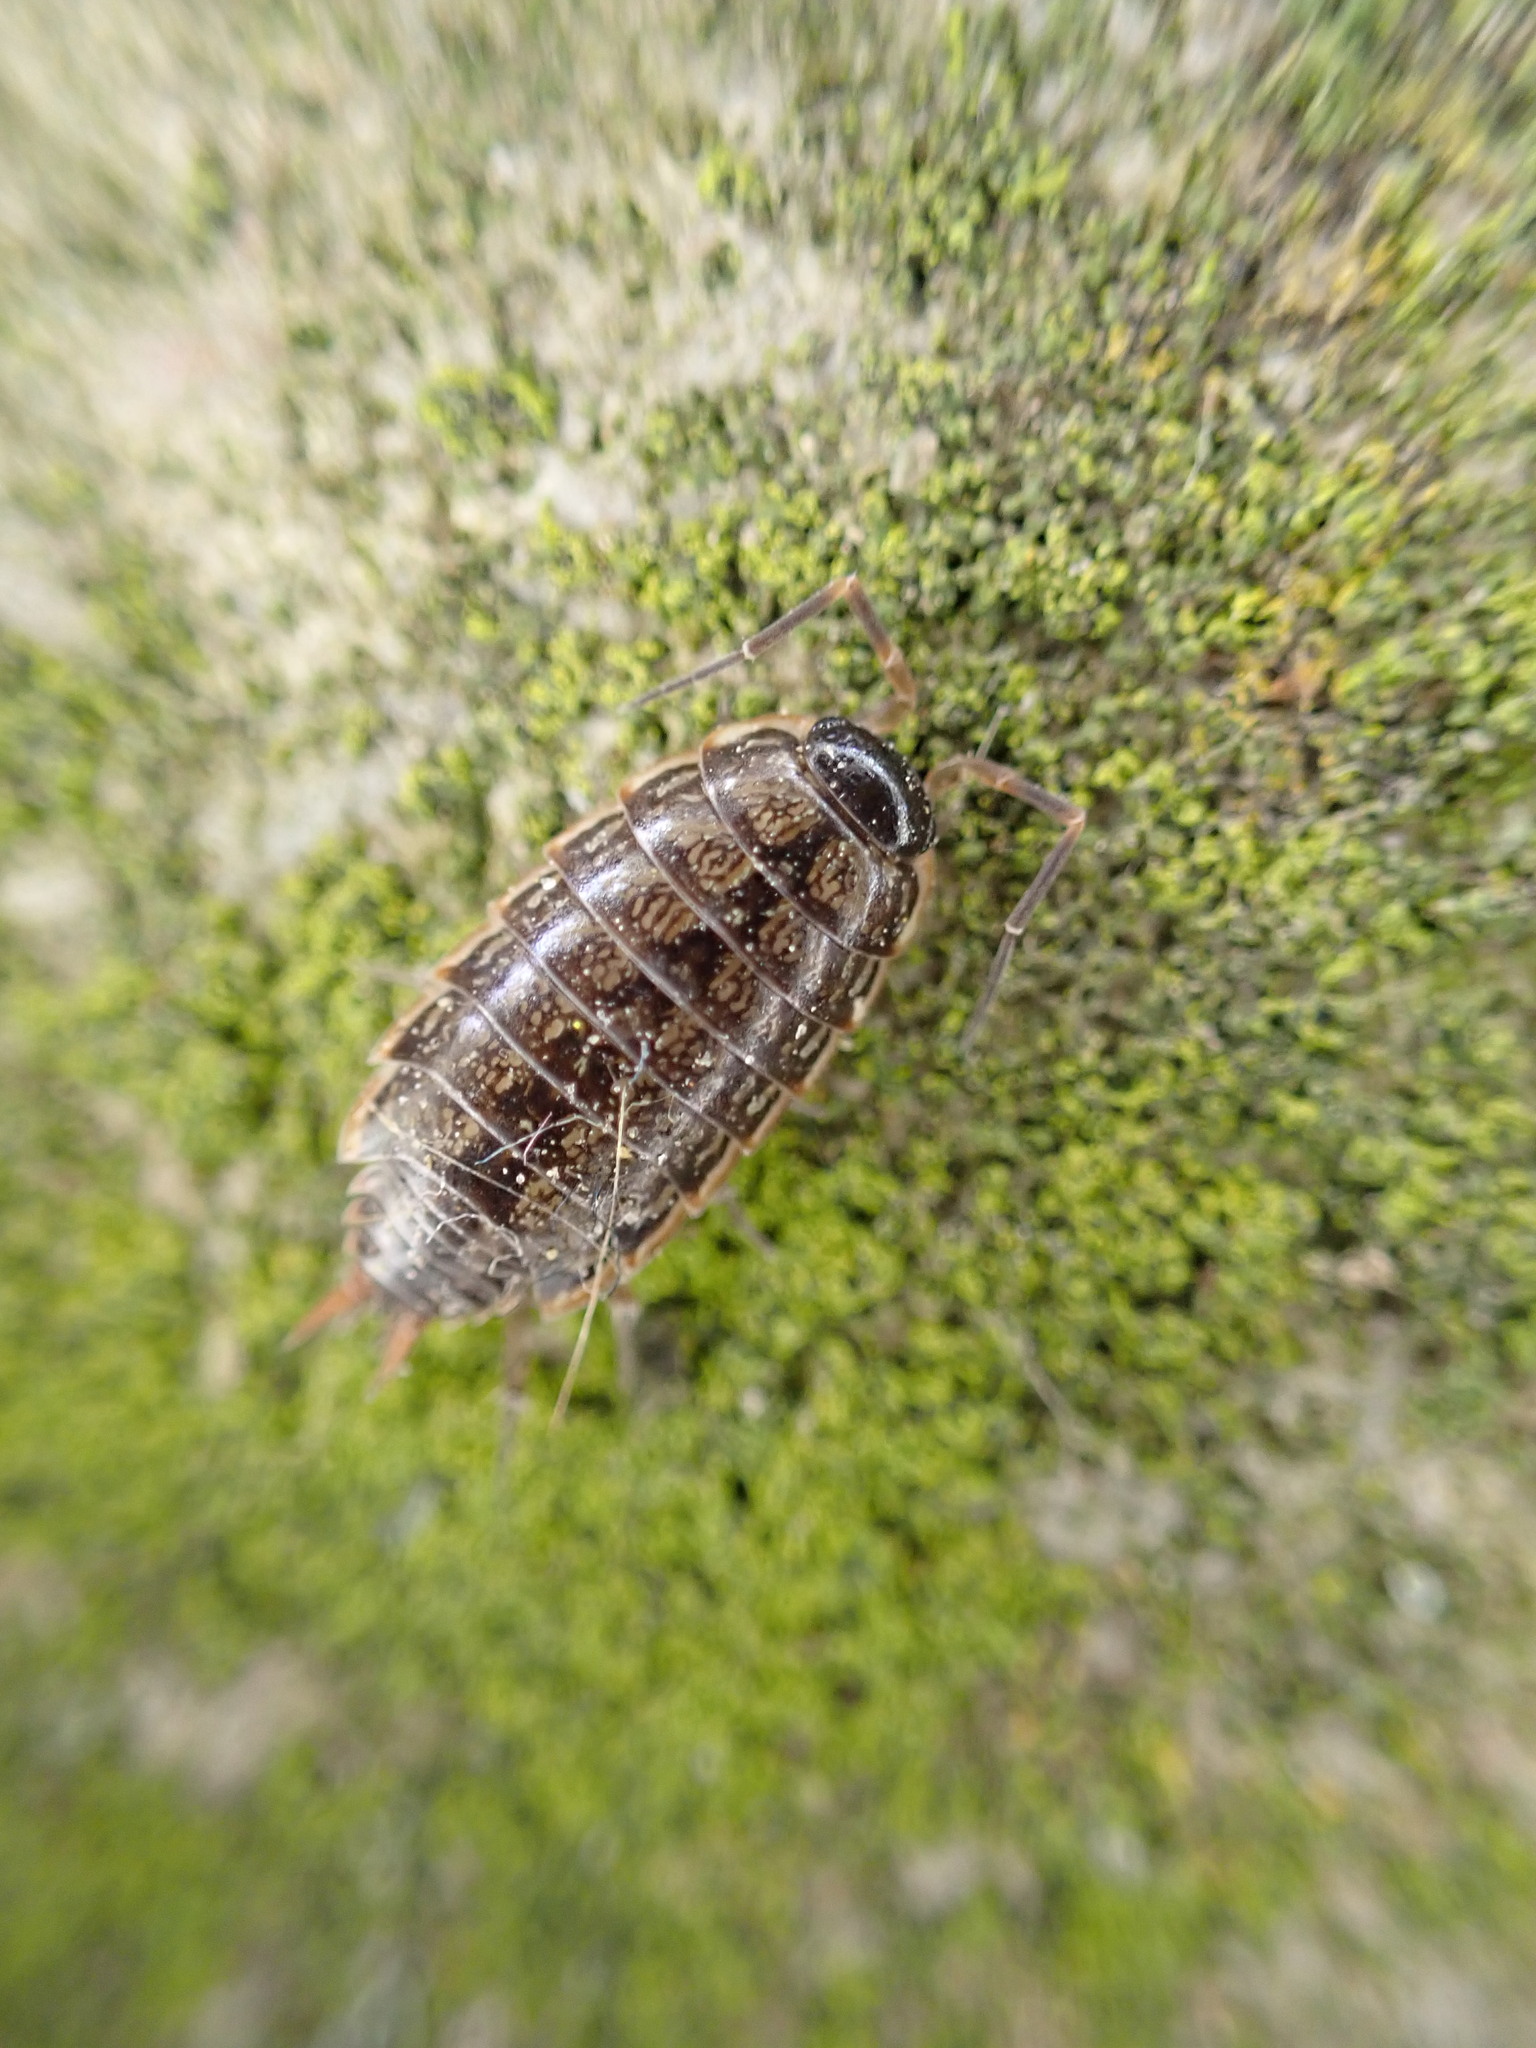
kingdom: Animalia
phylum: Arthropoda
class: Malacostraca
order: Isopoda
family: Philosciidae
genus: Philoscia
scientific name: Philoscia muscorum
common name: Common striped woodlouse
